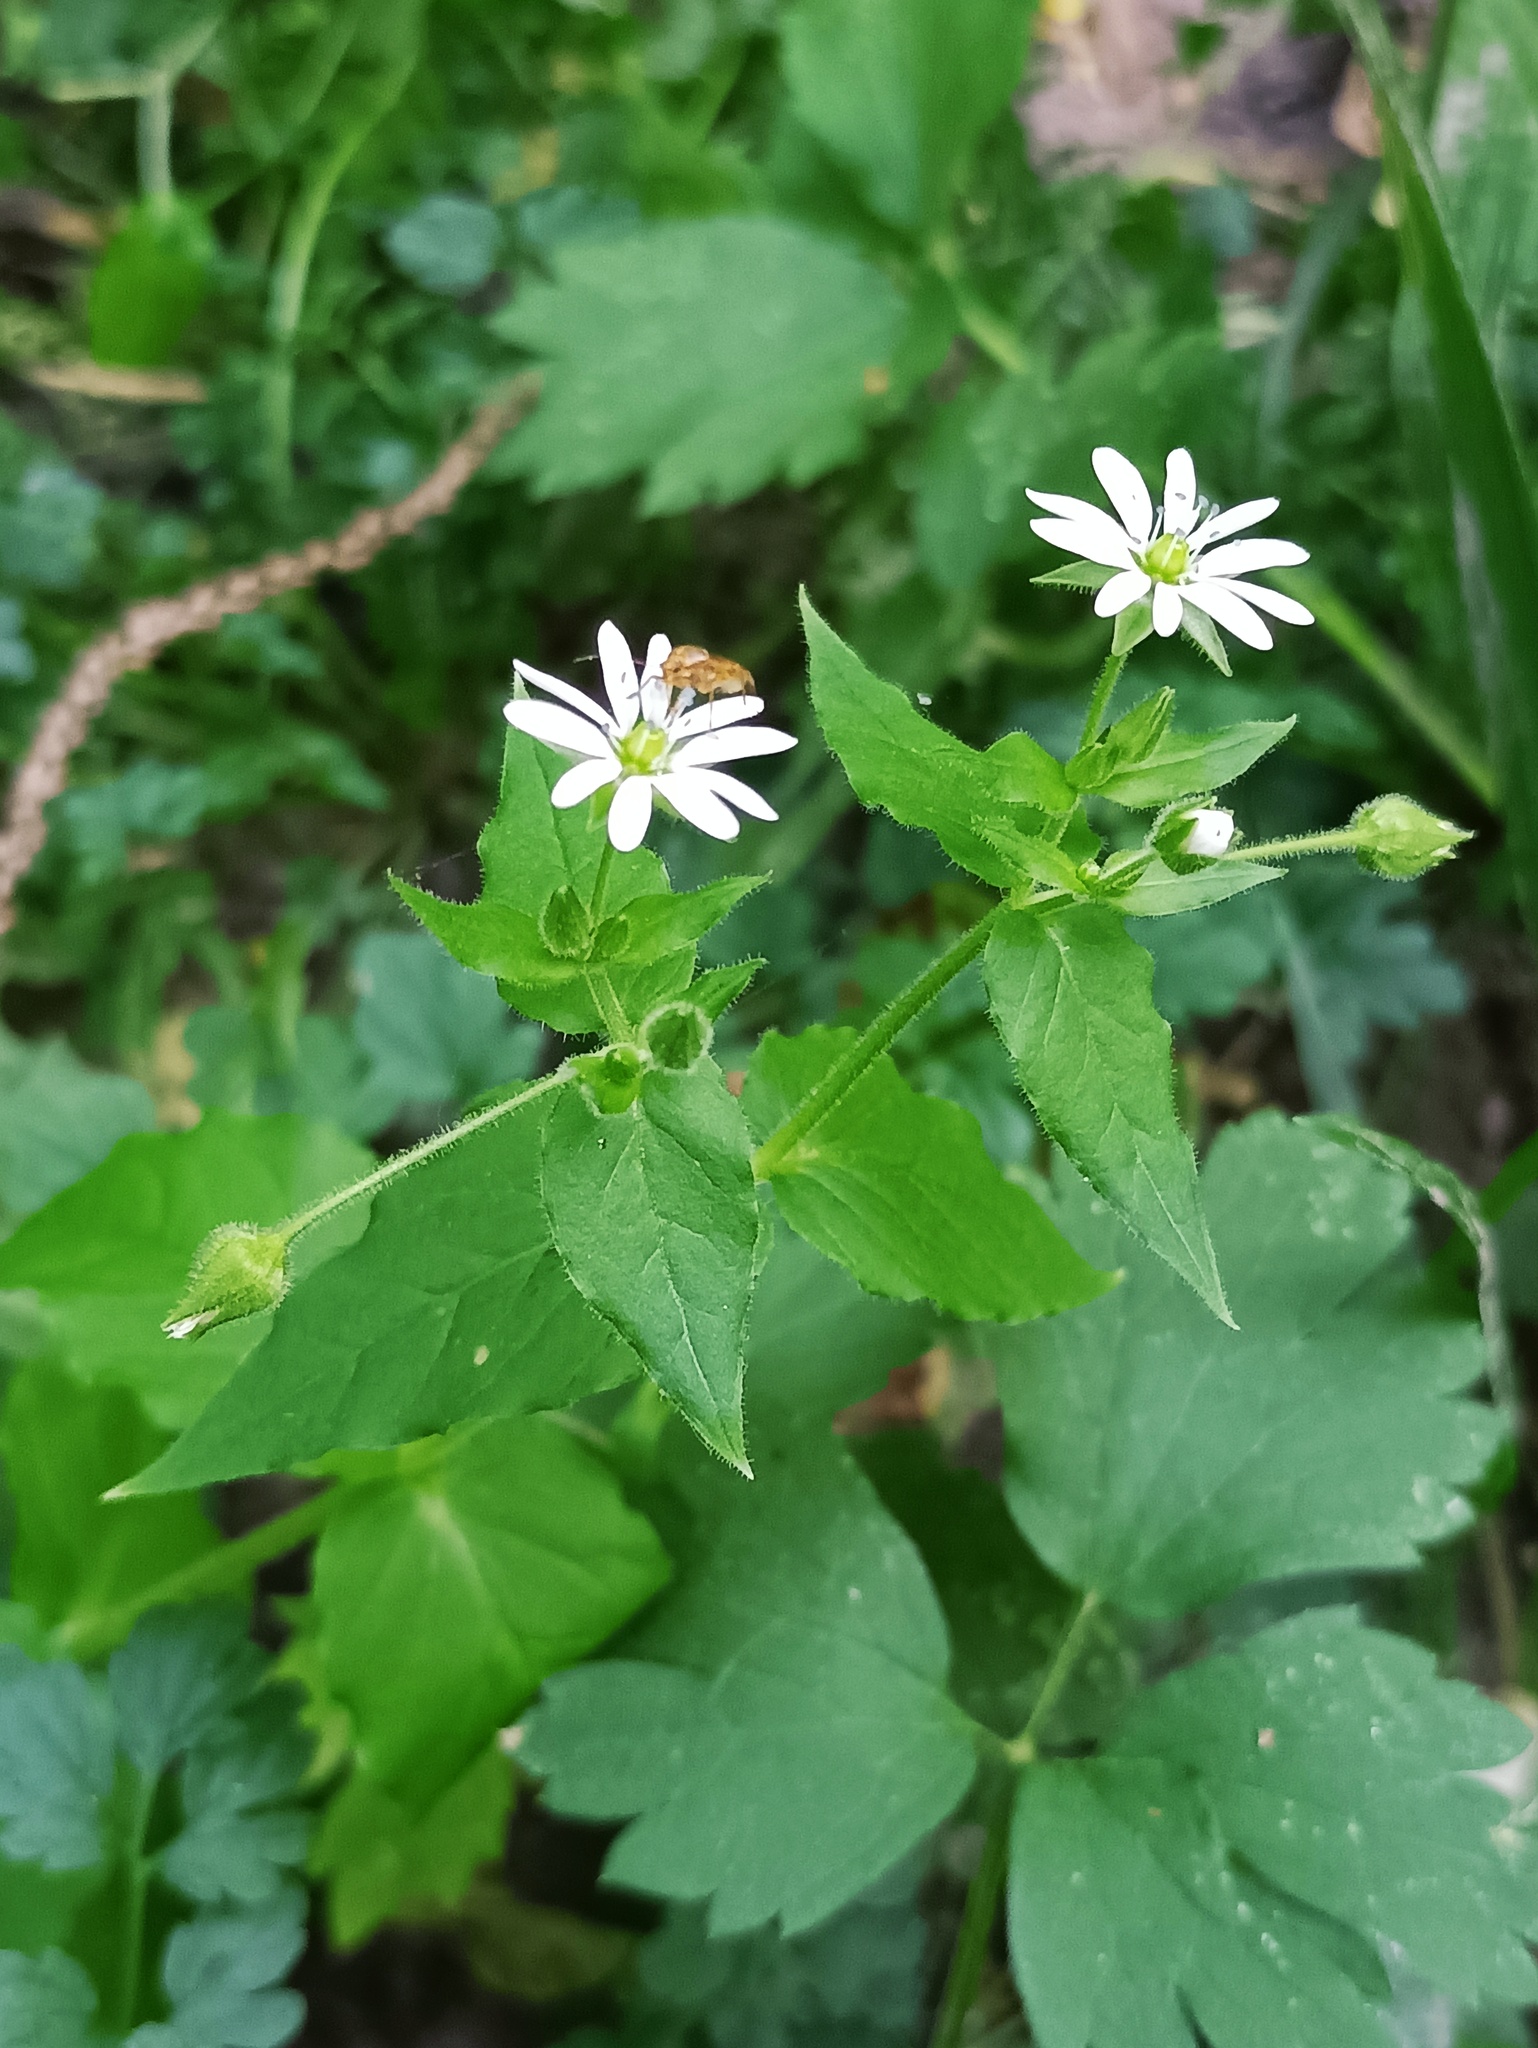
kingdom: Plantae
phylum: Tracheophyta
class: Magnoliopsida
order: Caryophyllales
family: Caryophyllaceae
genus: Stellaria
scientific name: Stellaria aquatica
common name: Water chickweed
